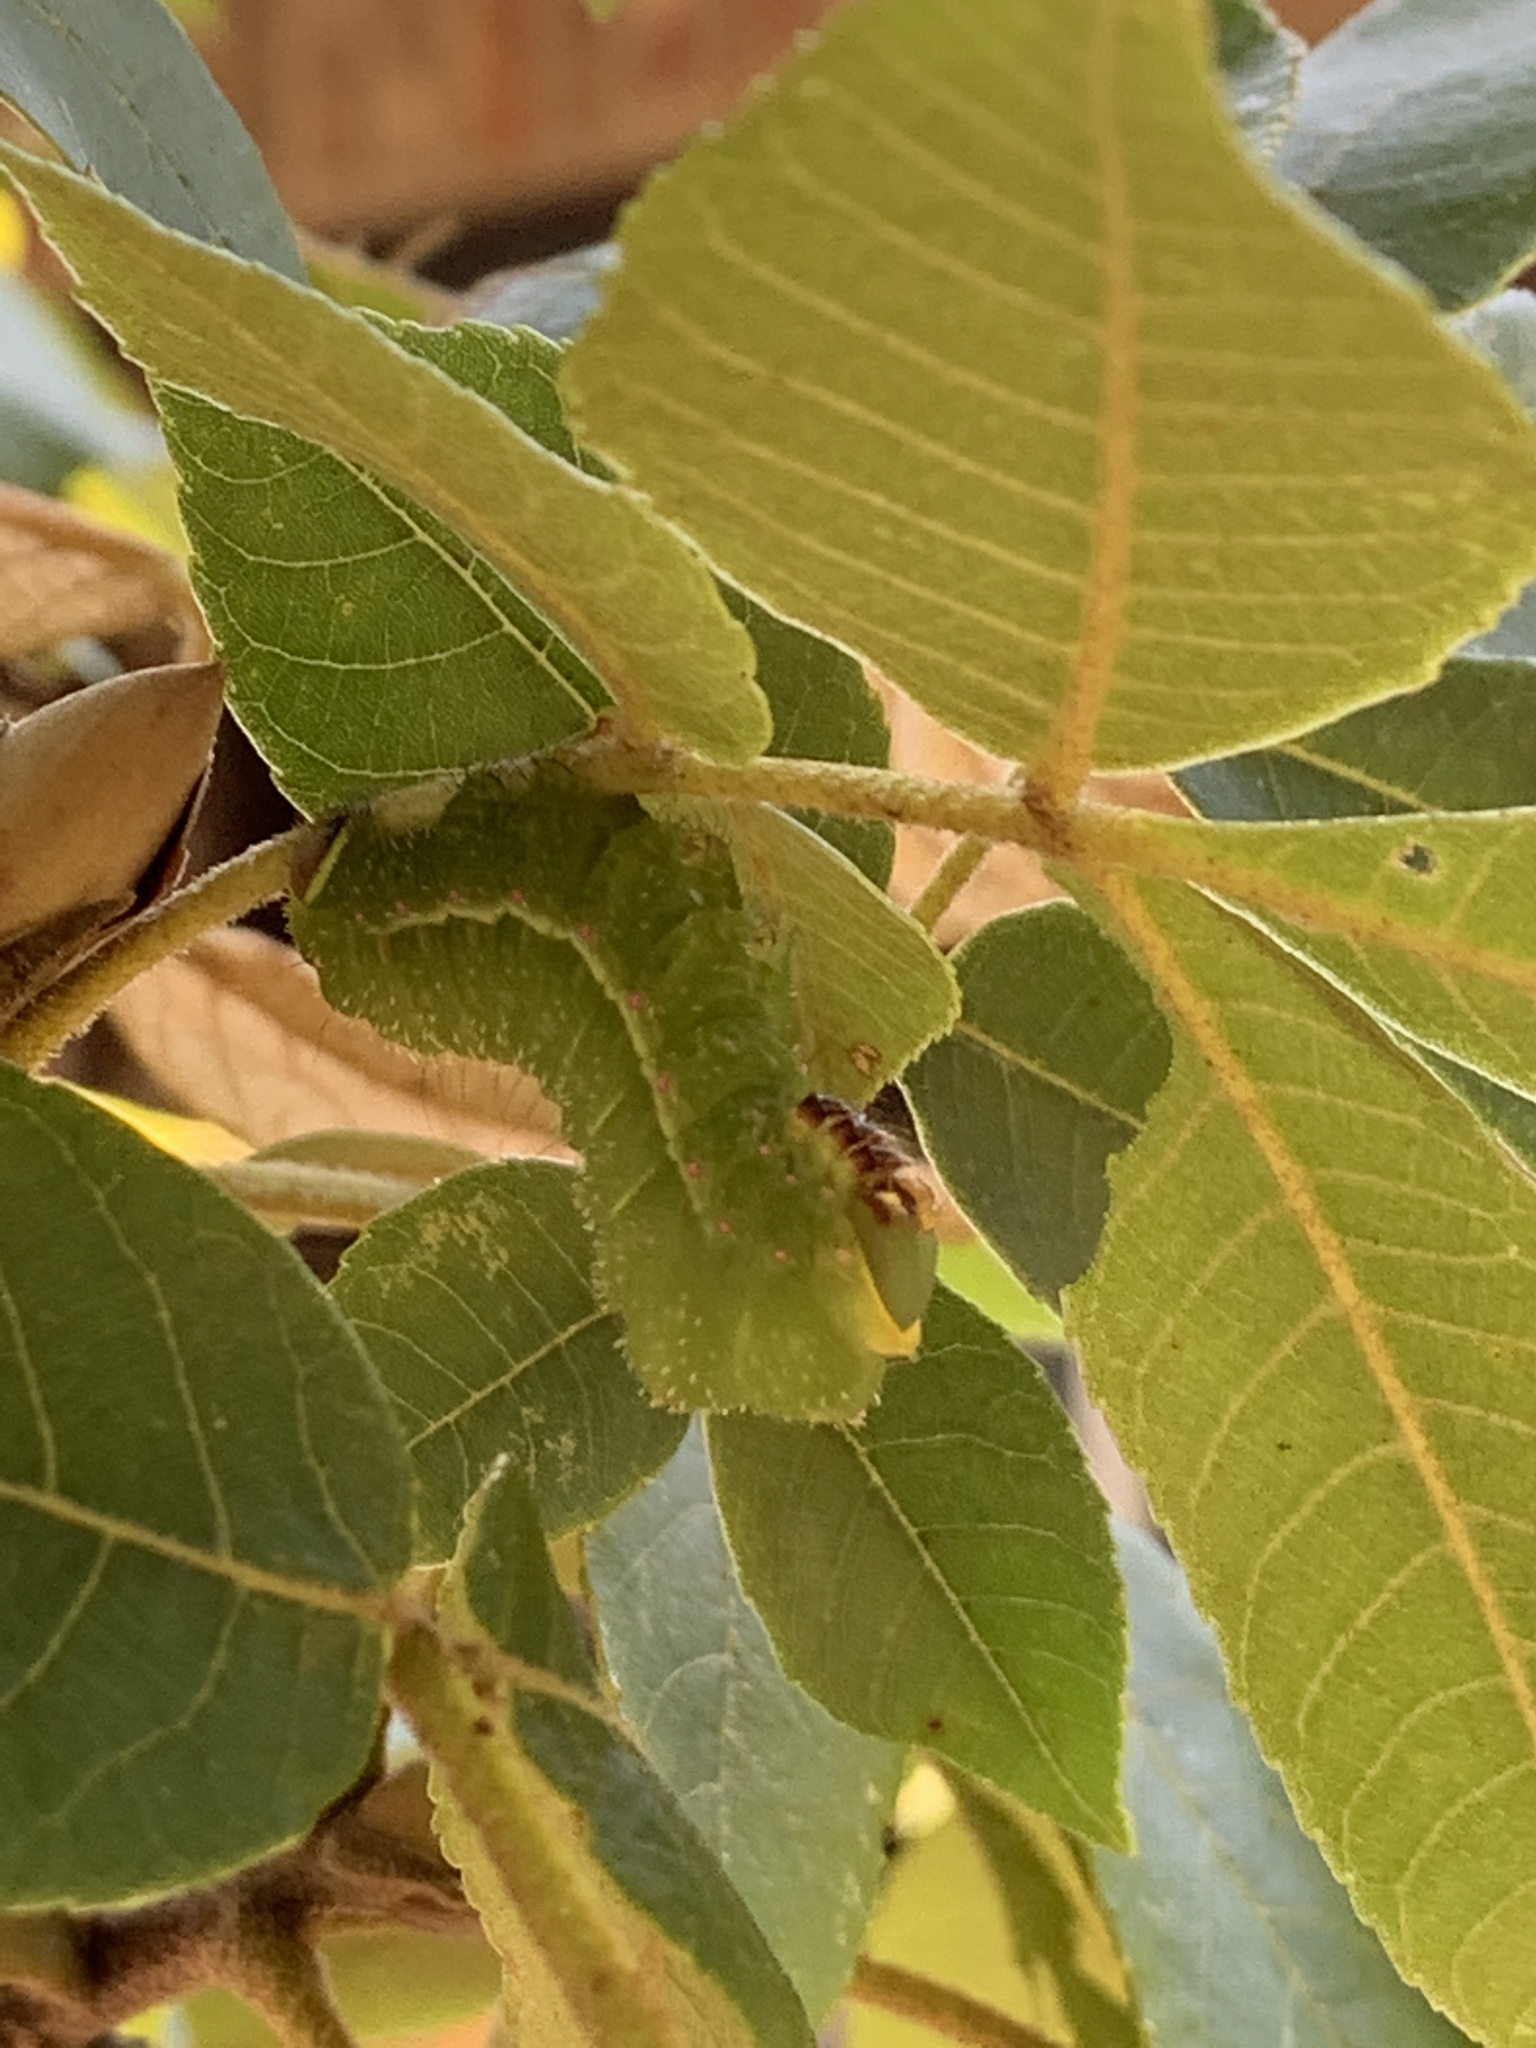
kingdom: Animalia
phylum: Arthropoda
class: Insecta
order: Lepidoptera
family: Saturniidae
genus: Actias
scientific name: Actias luna
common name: Luna moth
